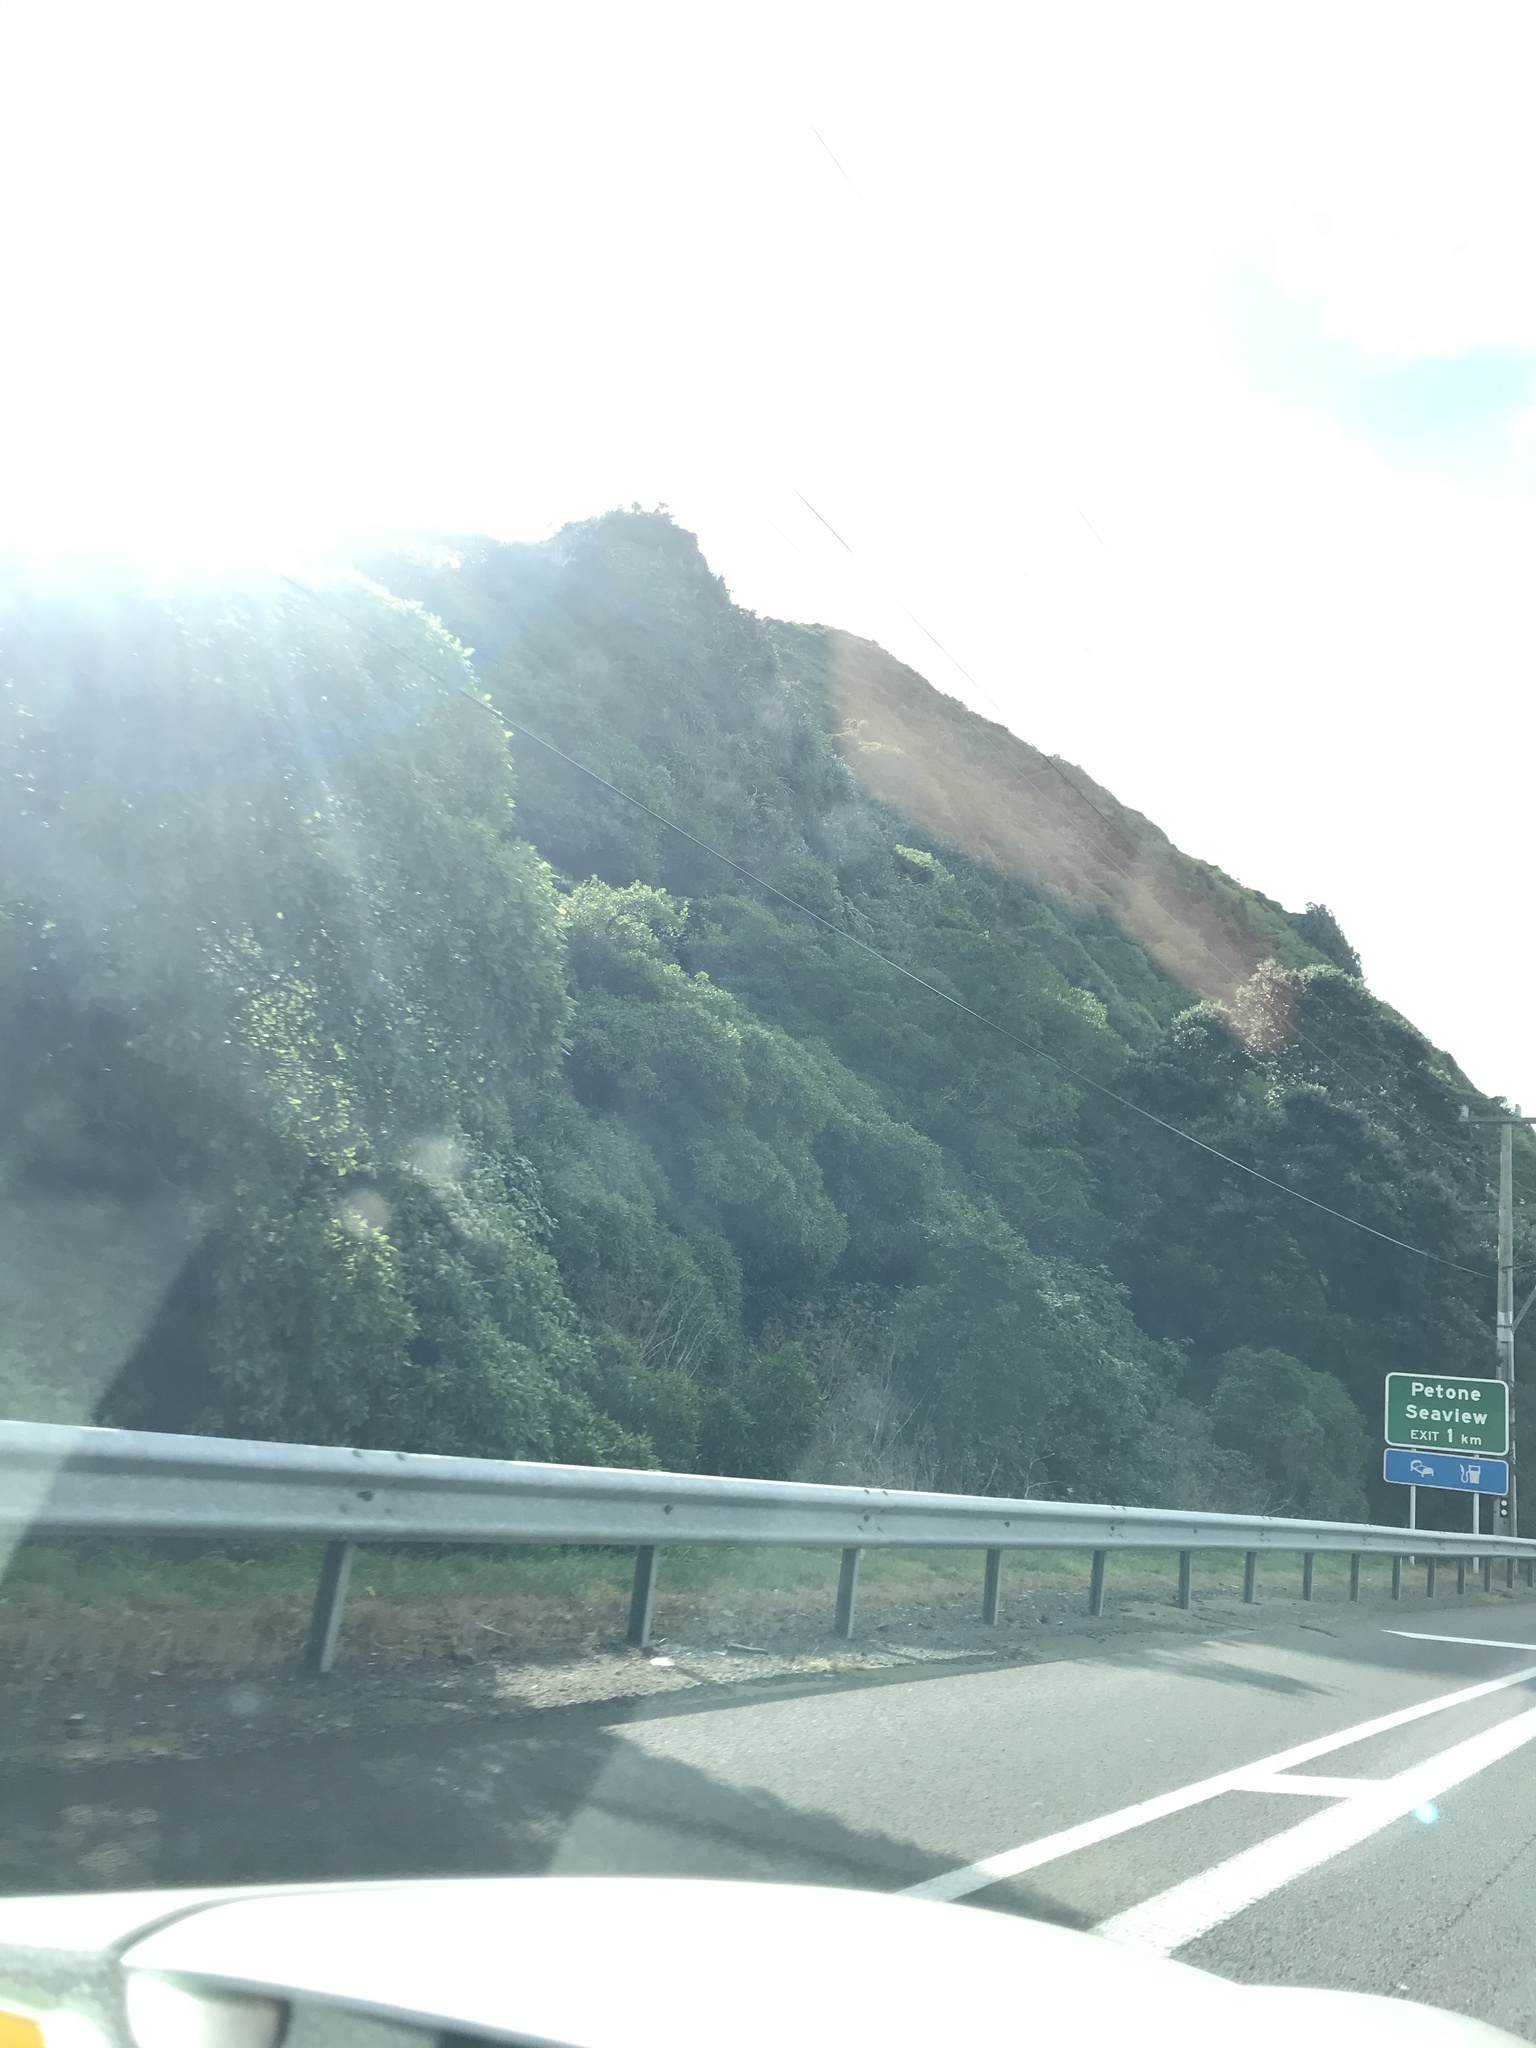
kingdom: Plantae
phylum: Tracheophyta
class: Magnoliopsida
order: Gentianales
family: Rubiaceae
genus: Coprosma
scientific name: Coprosma repens
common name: Tree bedstraw
